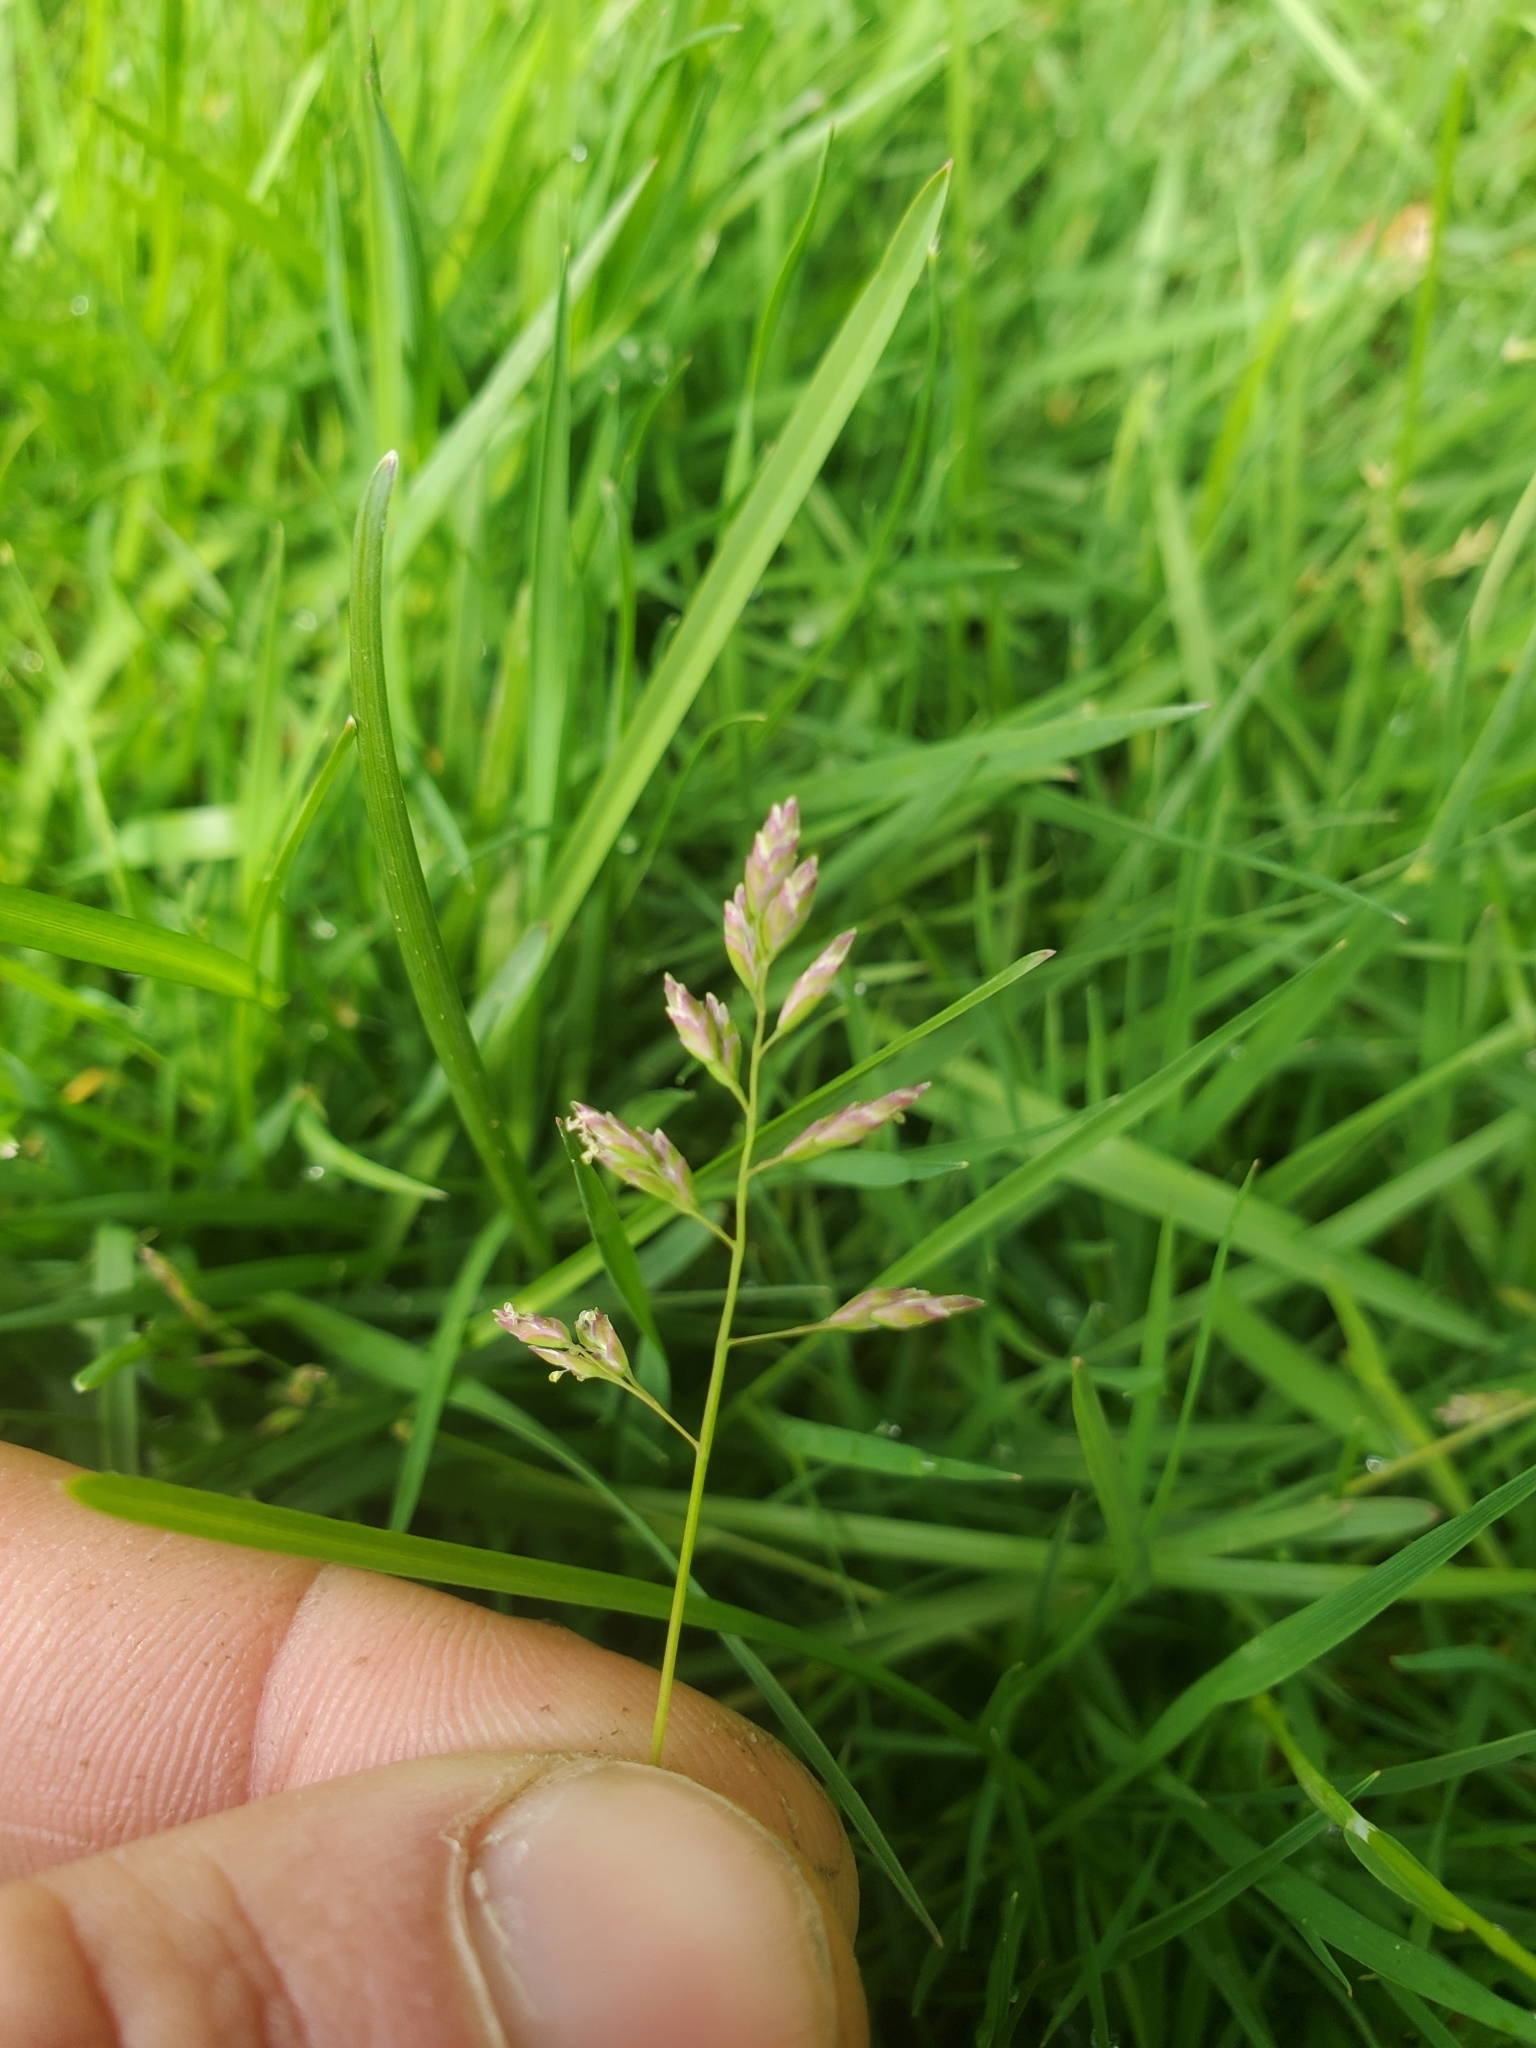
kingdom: Plantae
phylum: Tracheophyta
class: Liliopsida
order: Poales
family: Poaceae
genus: Poa
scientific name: Poa annua
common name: Annual bluegrass
